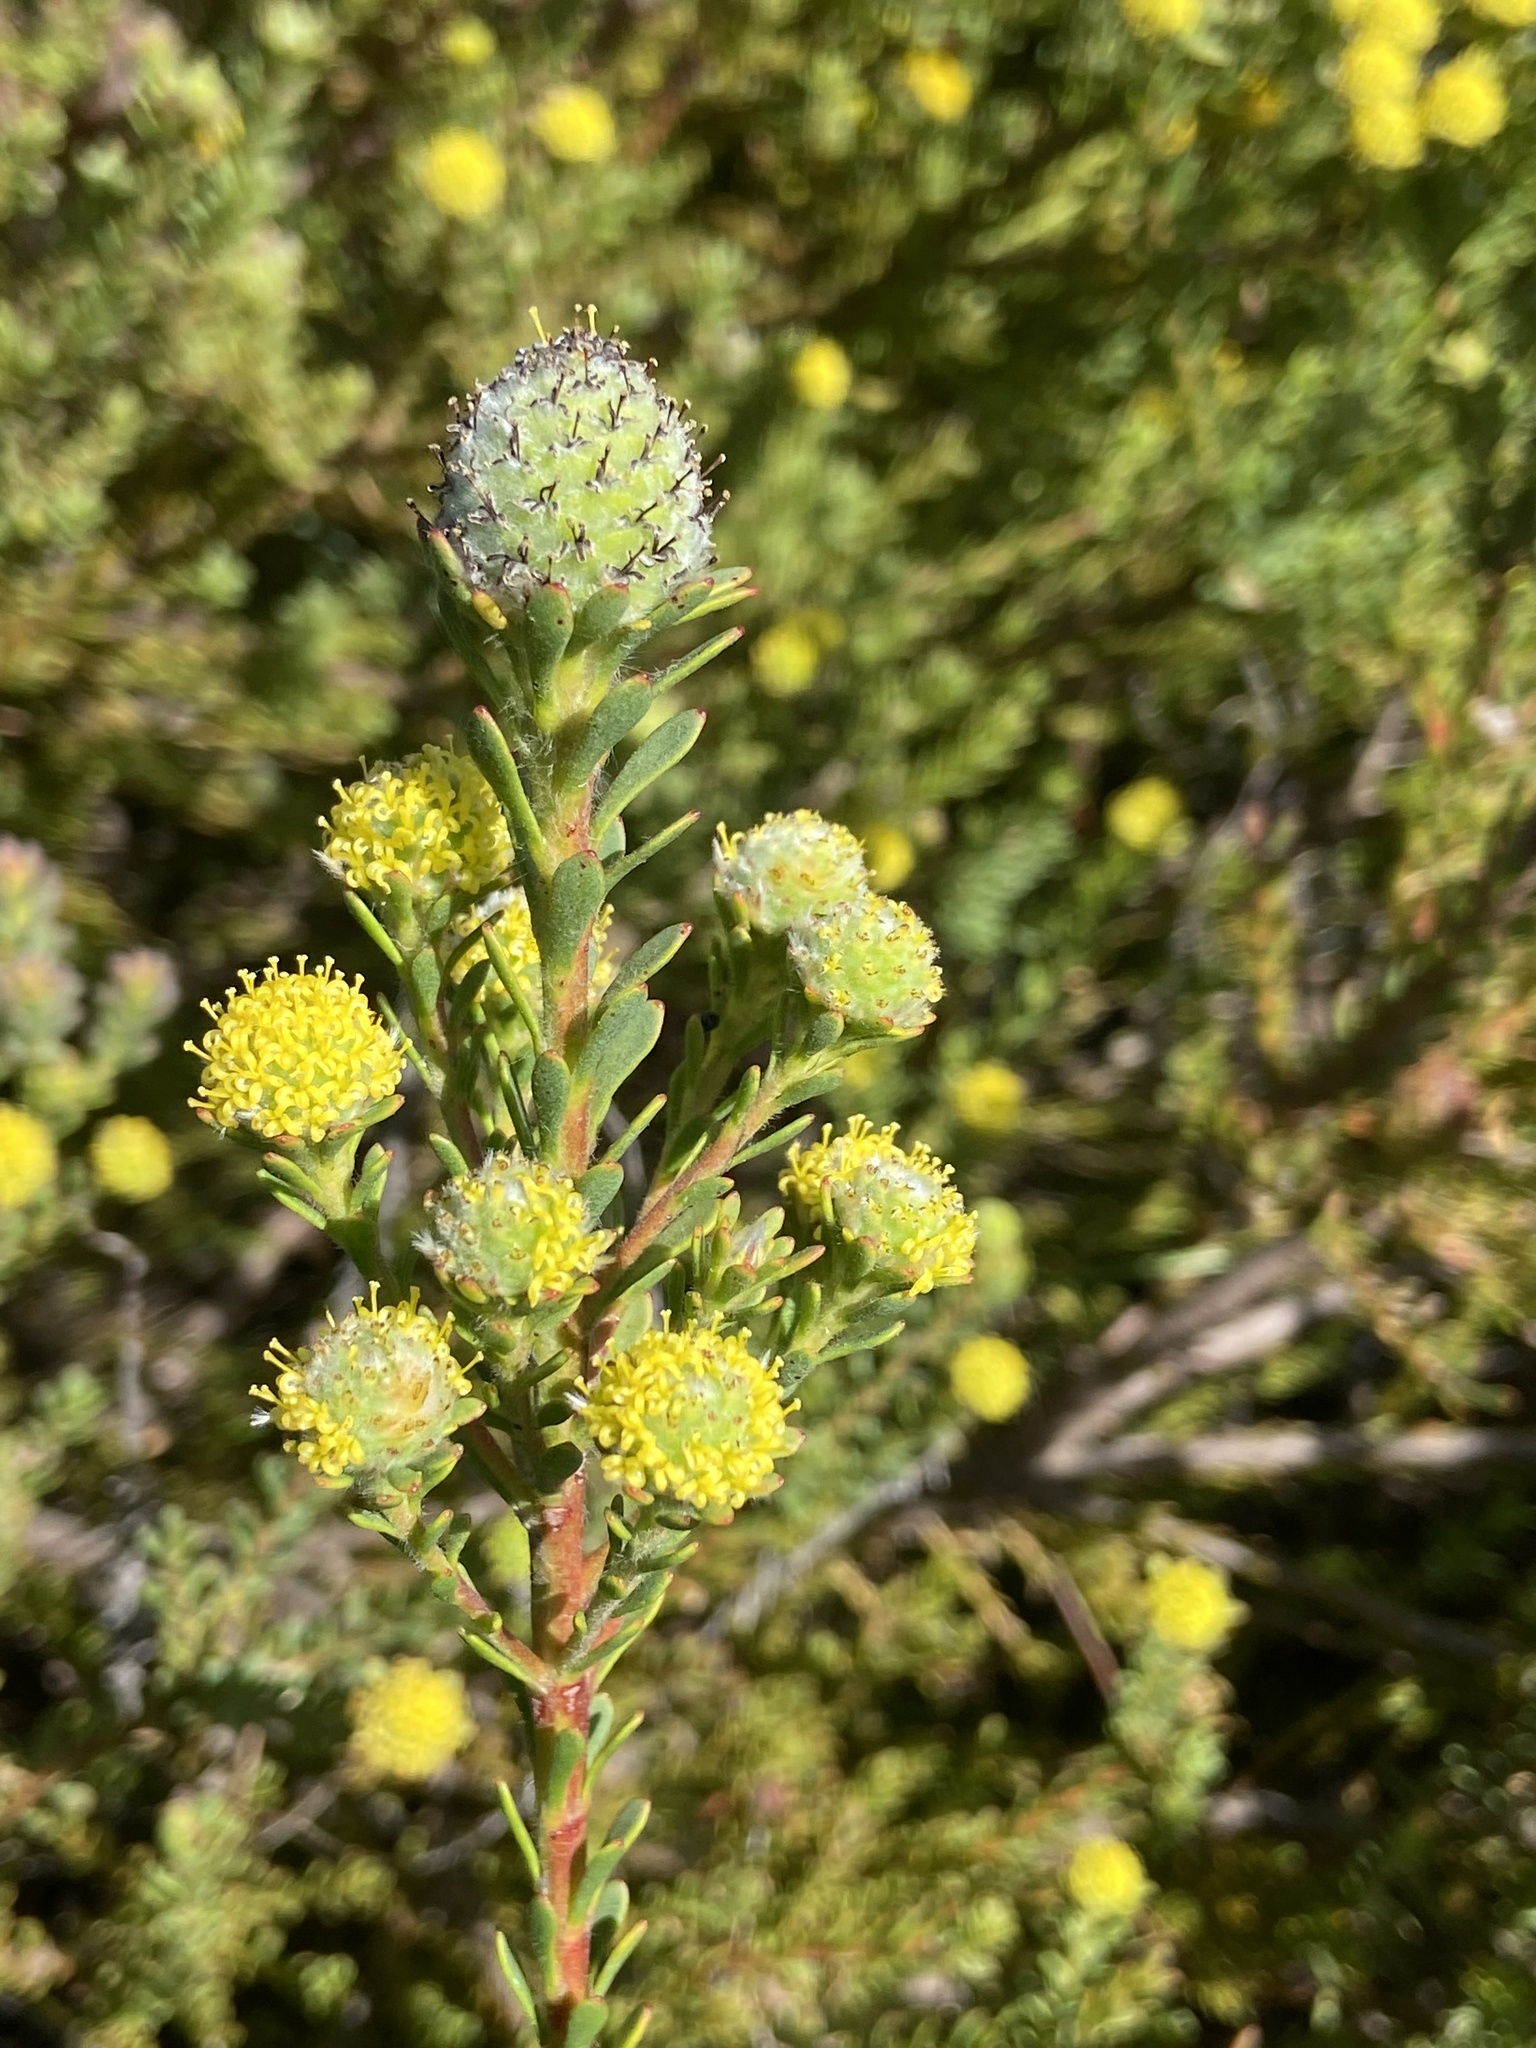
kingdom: Plantae
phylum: Tracheophyta
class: Magnoliopsida
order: Proteales
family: Proteaceae
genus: Leucadendron
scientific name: Leucadendron levisanus
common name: Cape flats conebush
